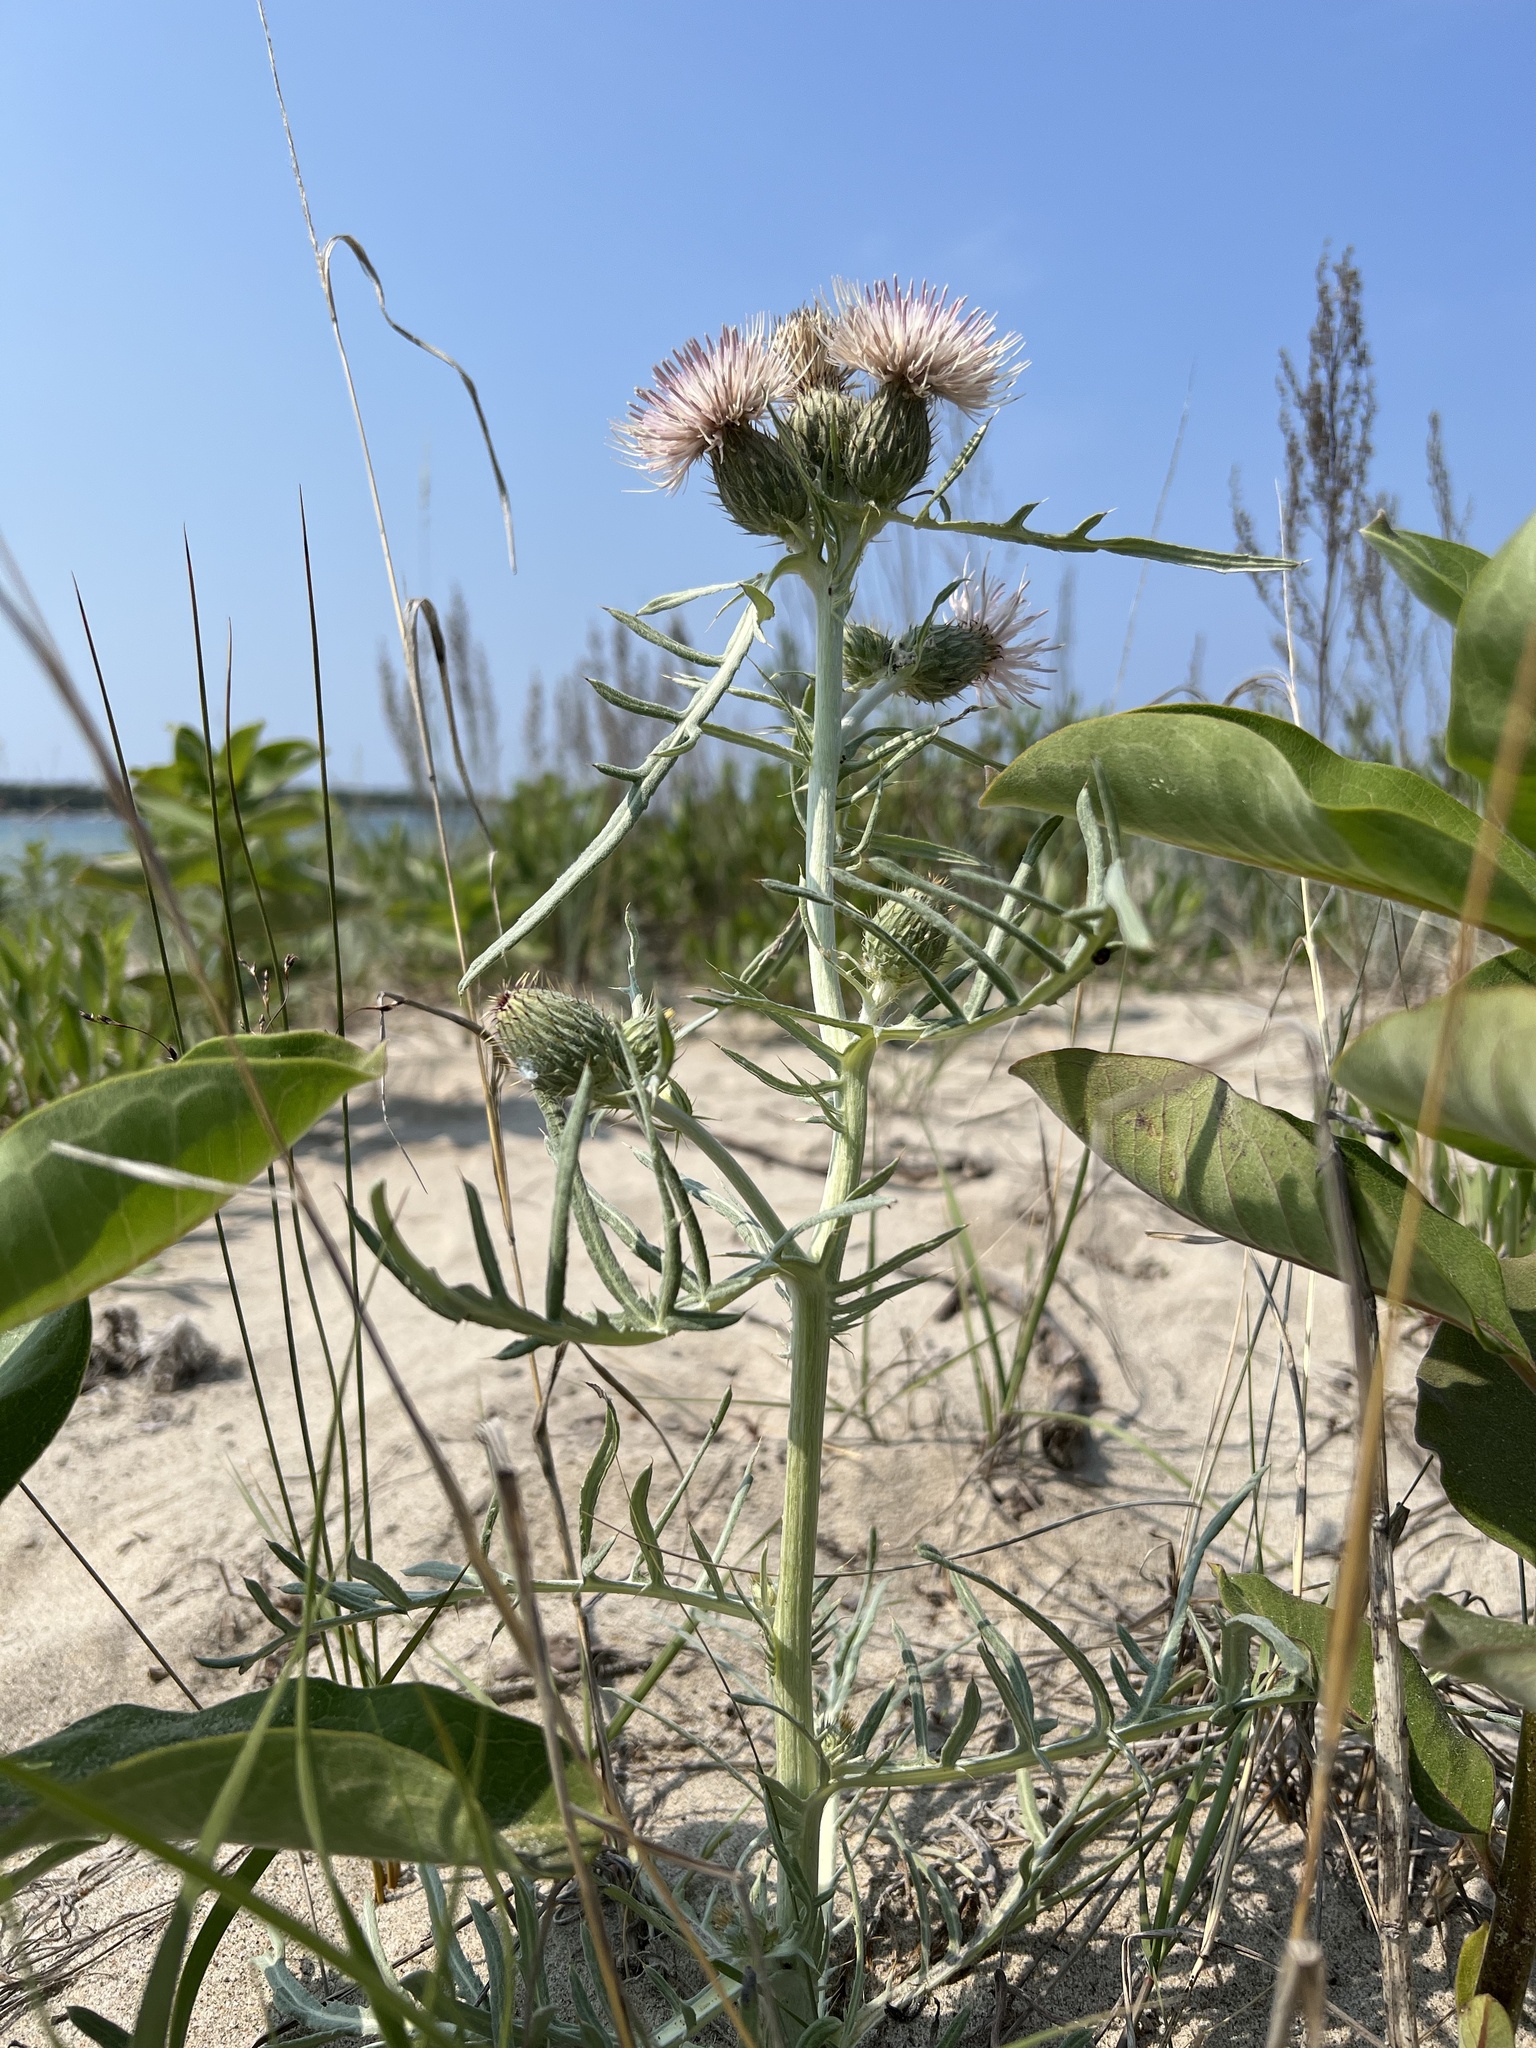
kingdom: Plantae
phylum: Tracheophyta
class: Magnoliopsida
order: Asterales
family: Asteraceae
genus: Cirsium
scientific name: Cirsium pitcheri
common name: Dune thistle
